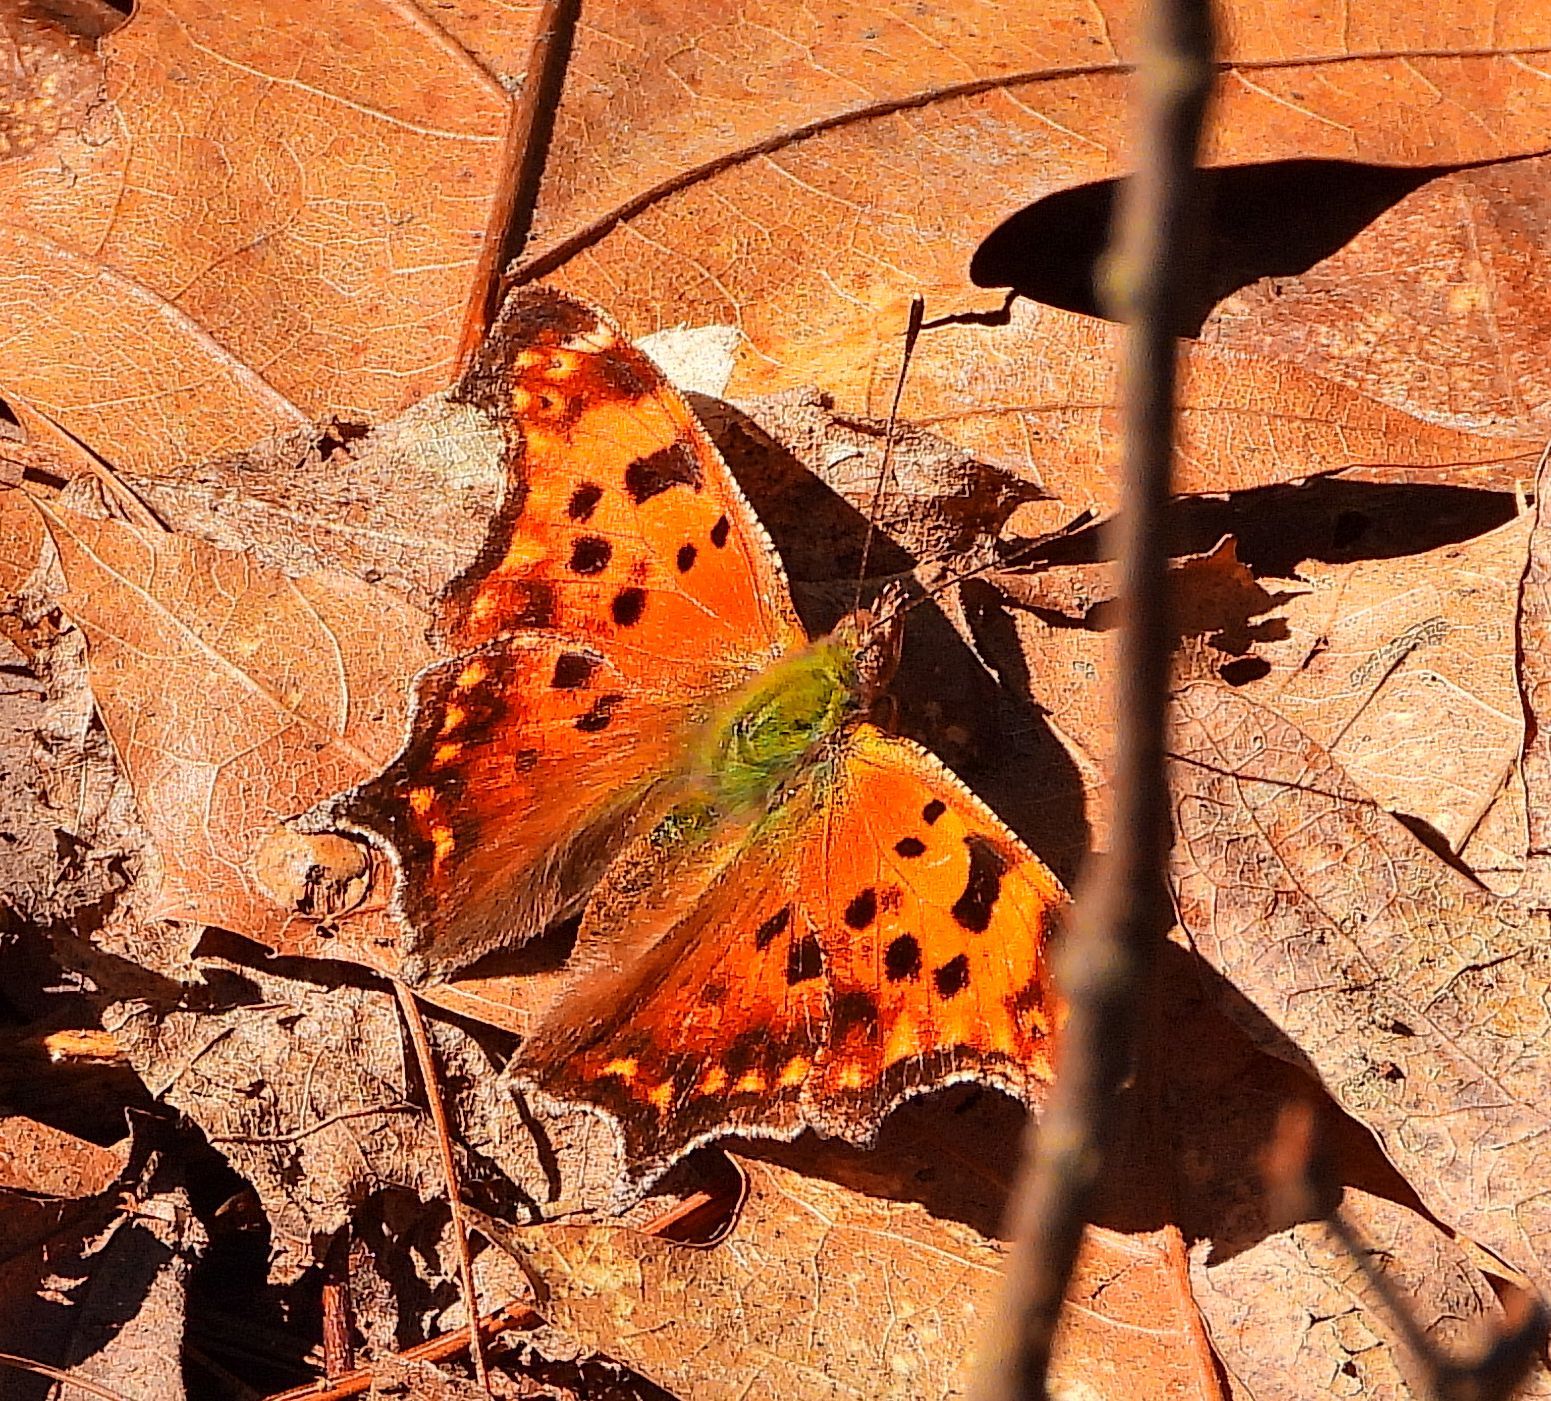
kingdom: Animalia
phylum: Arthropoda
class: Insecta
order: Lepidoptera
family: Nymphalidae
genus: Polygonia
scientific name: Polygonia comma
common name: Eastern comma
